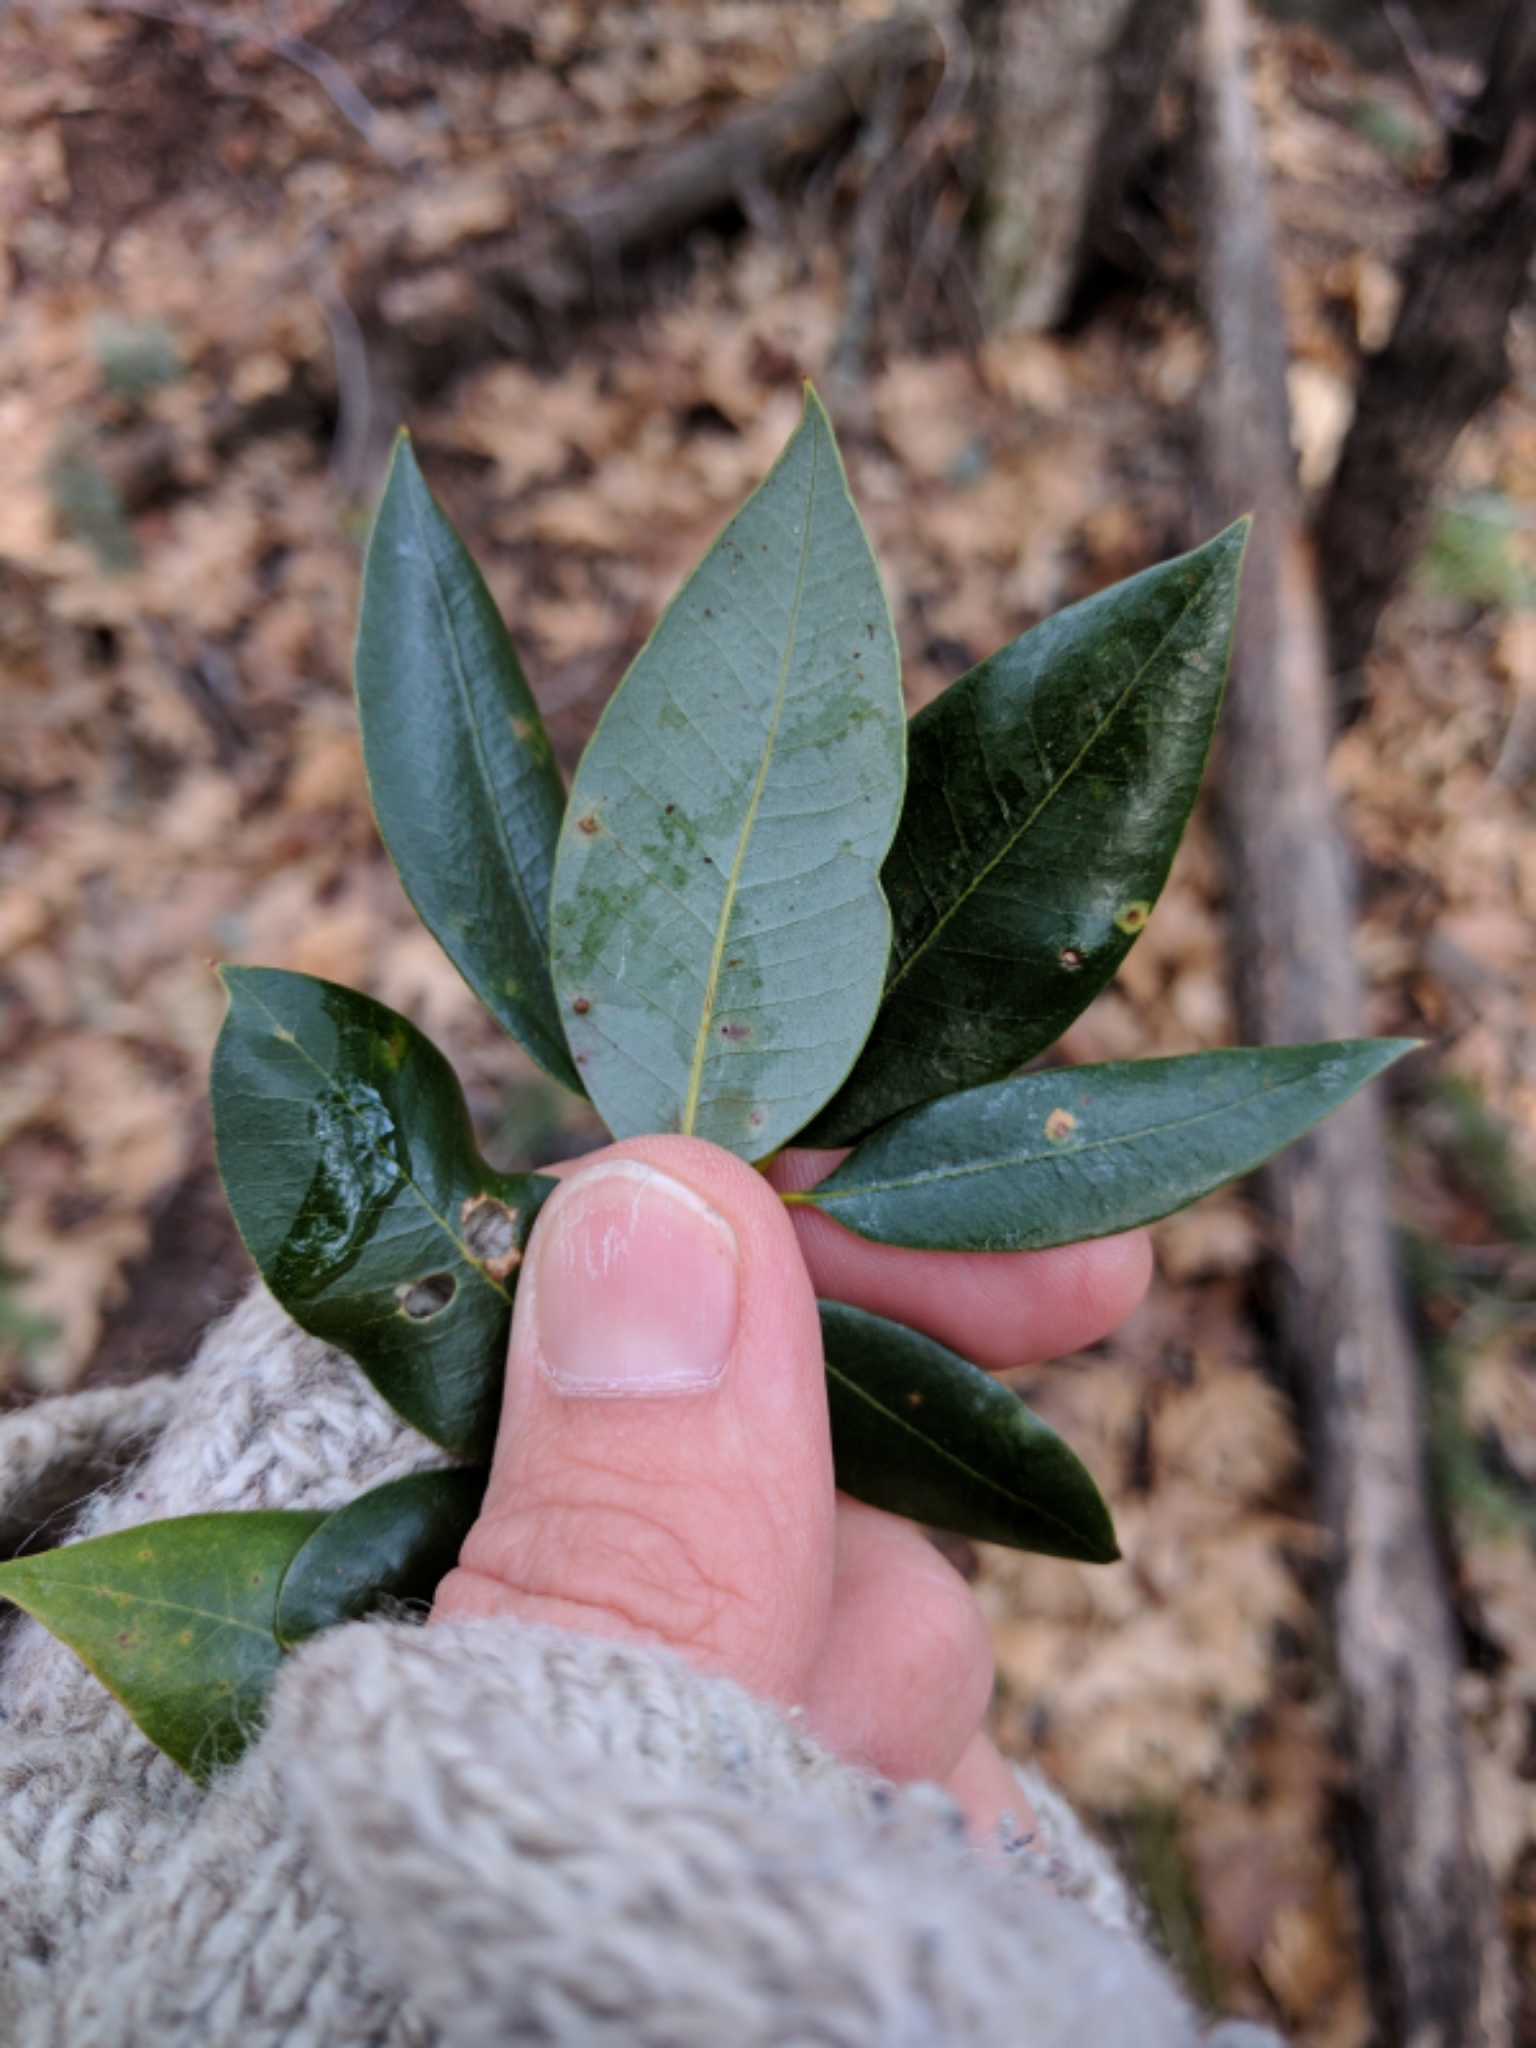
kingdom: Plantae
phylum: Tracheophyta
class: Magnoliopsida
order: Fagales
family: Fagaceae
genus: Quercus
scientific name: Quercus chrysolepis
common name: Canyon live oak
